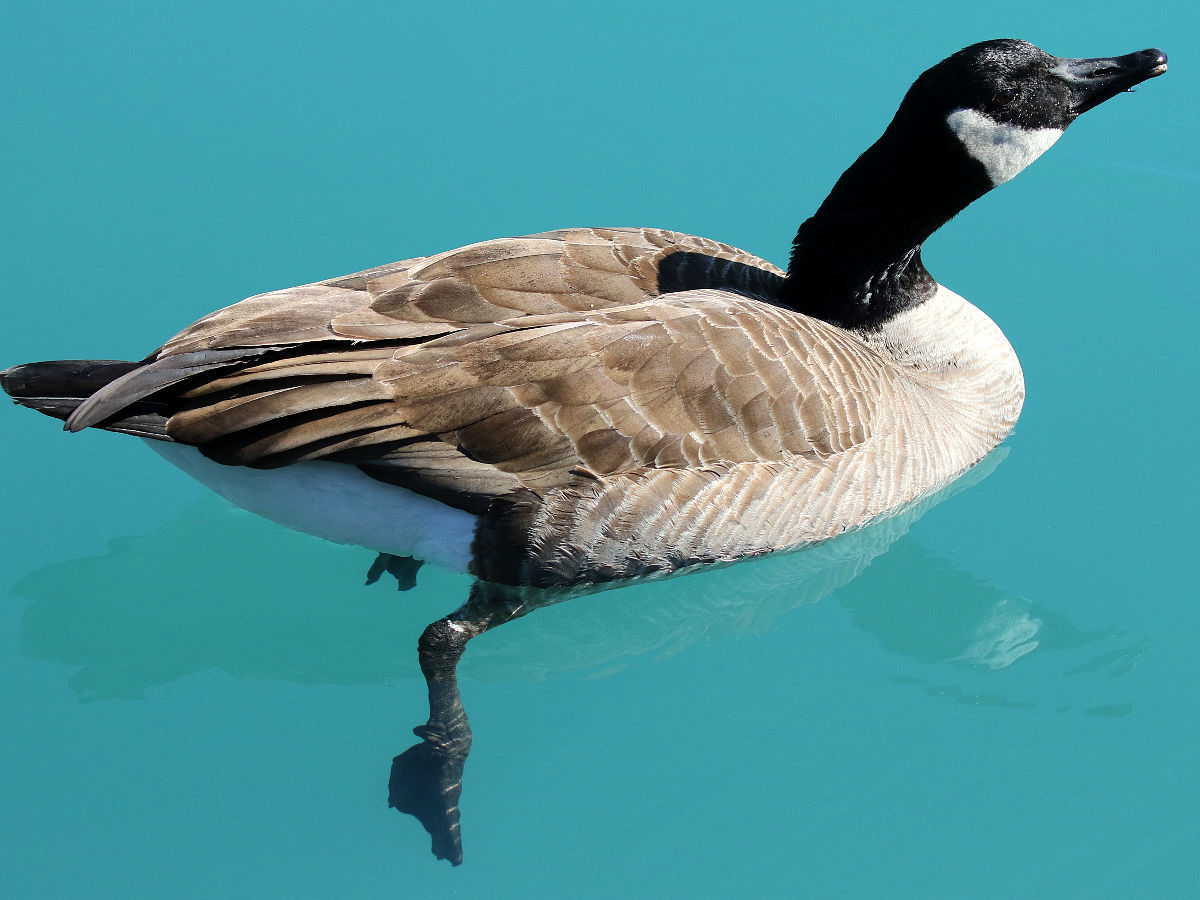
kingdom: Animalia
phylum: Chordata
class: Aves
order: Anseriformes
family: Anatidae
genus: Branta
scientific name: Branta canadensis
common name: Canada goose
